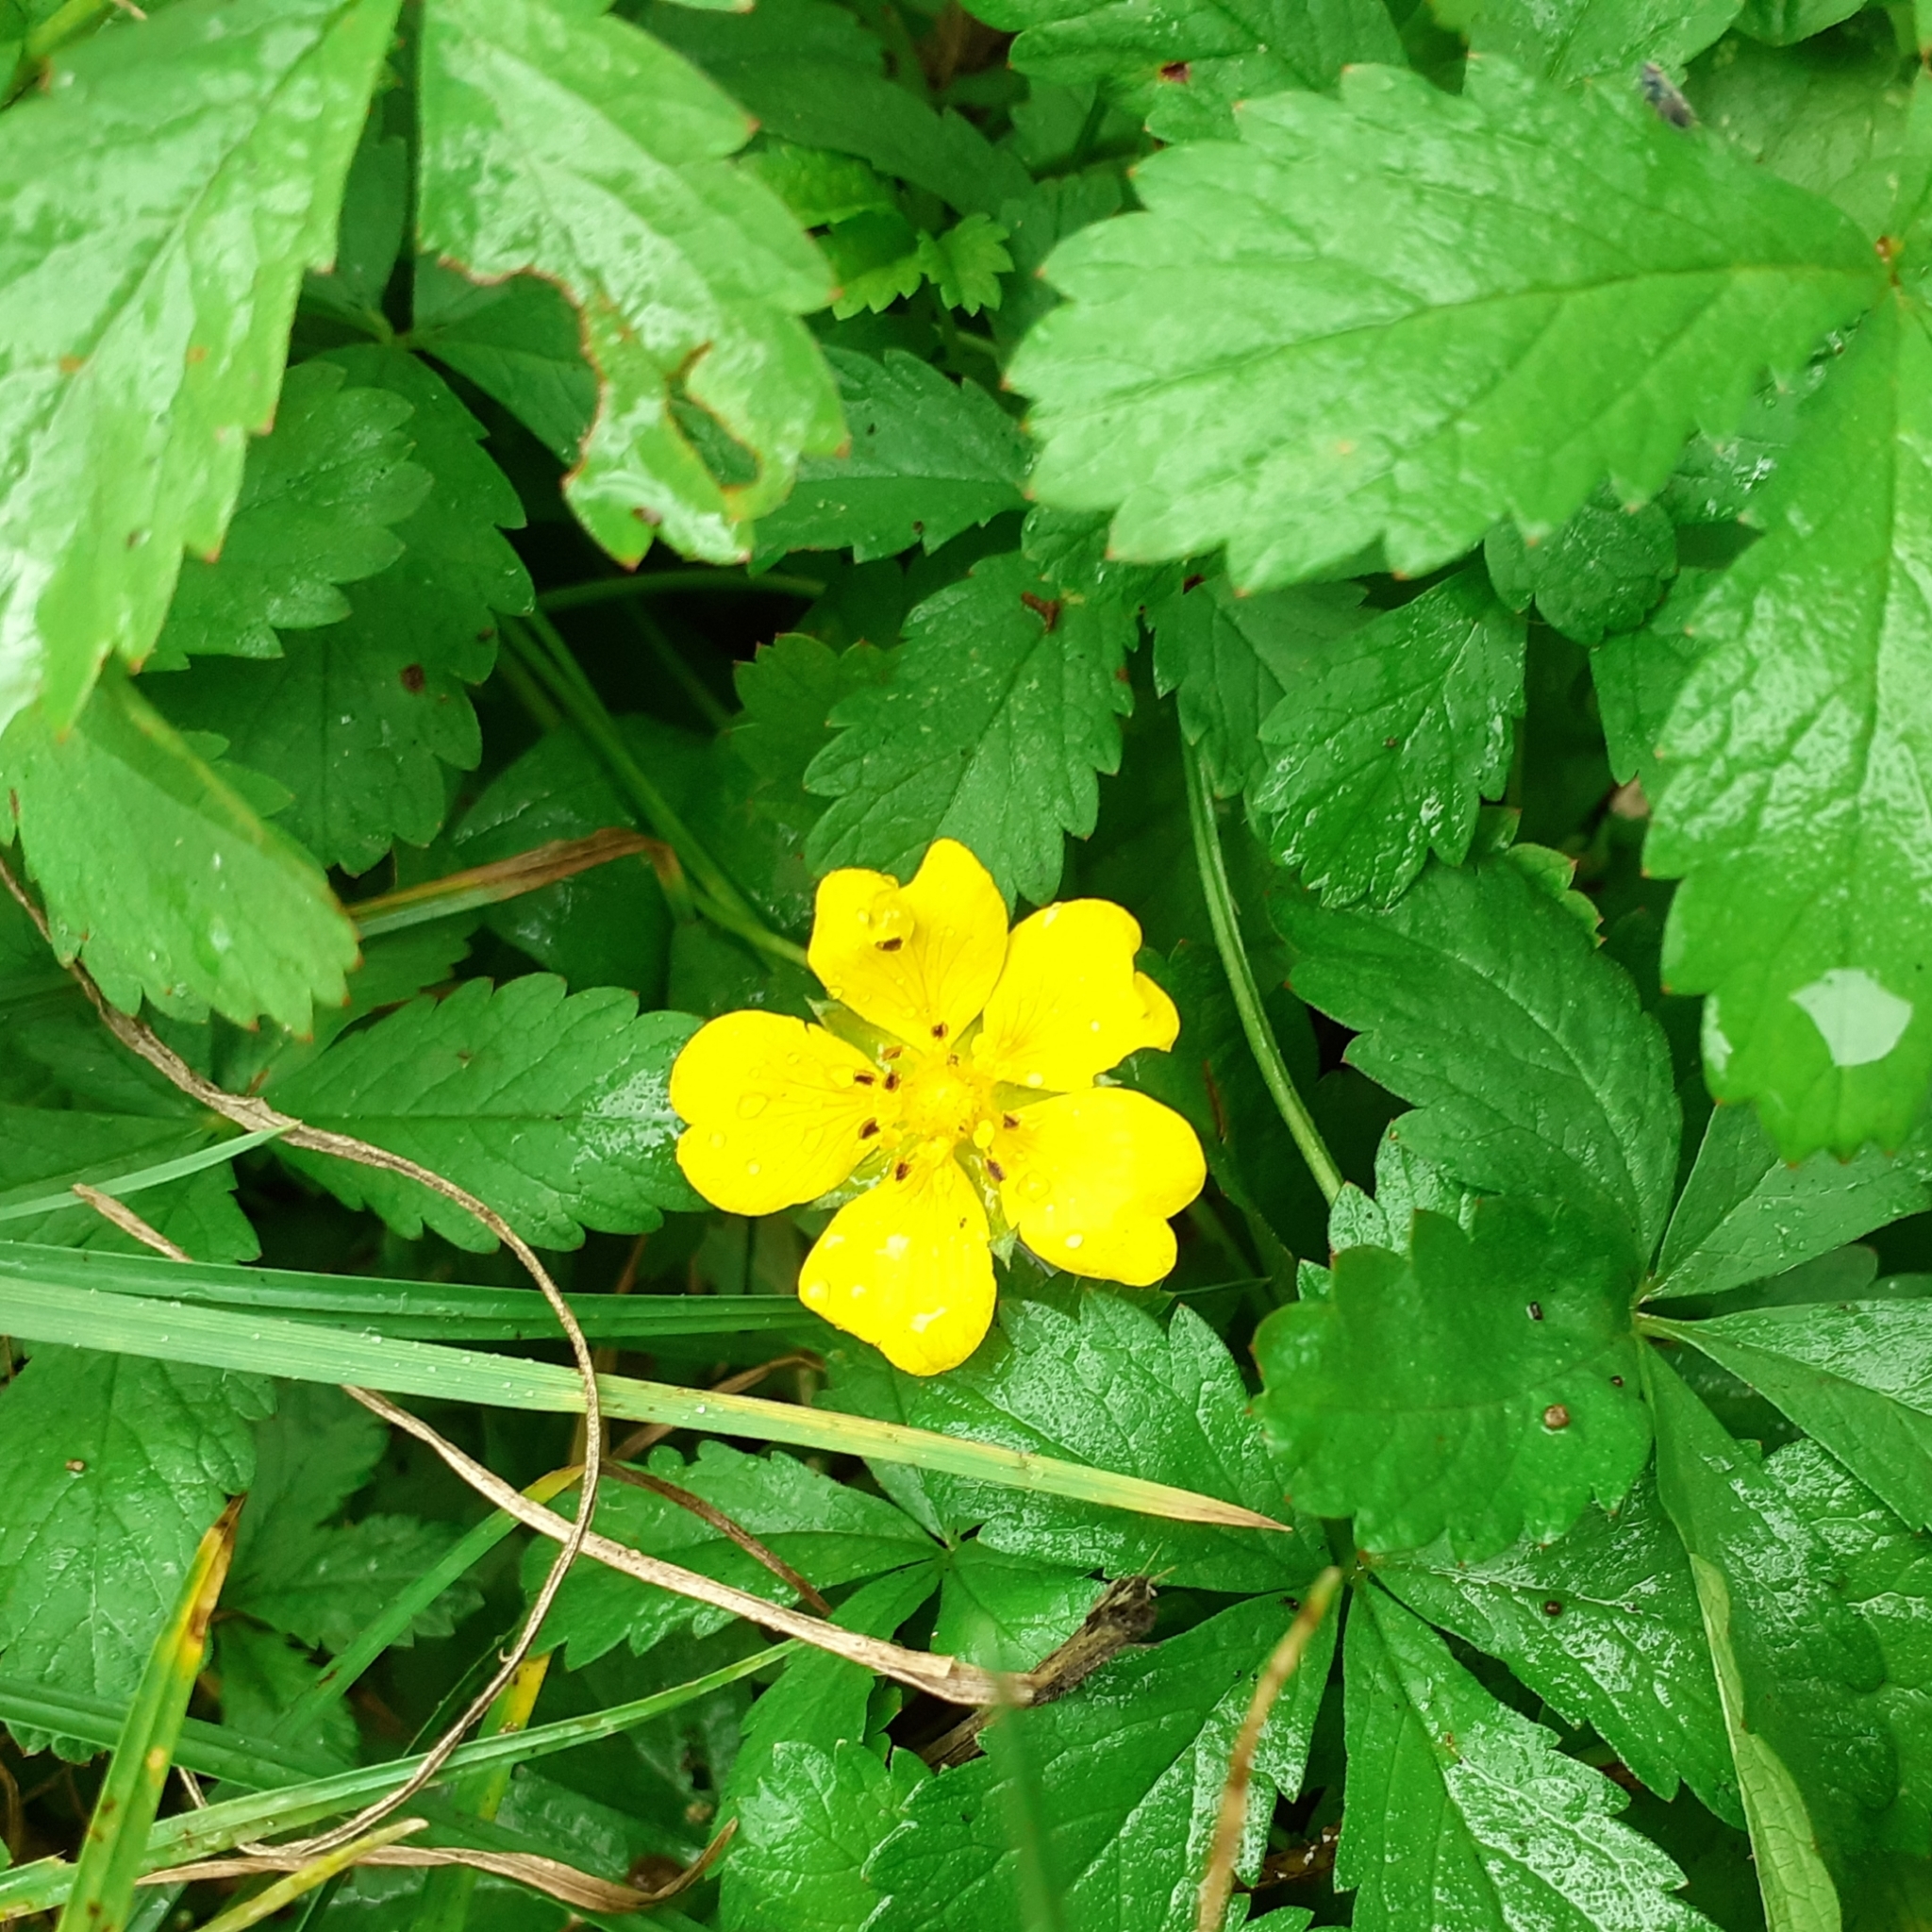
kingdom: Plantae
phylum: Tracheophyta
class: Magnoliopsida
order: Rosales
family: Rosaceae
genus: Potentilla
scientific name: Potentilla reptans
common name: Creeping cinquefoil
